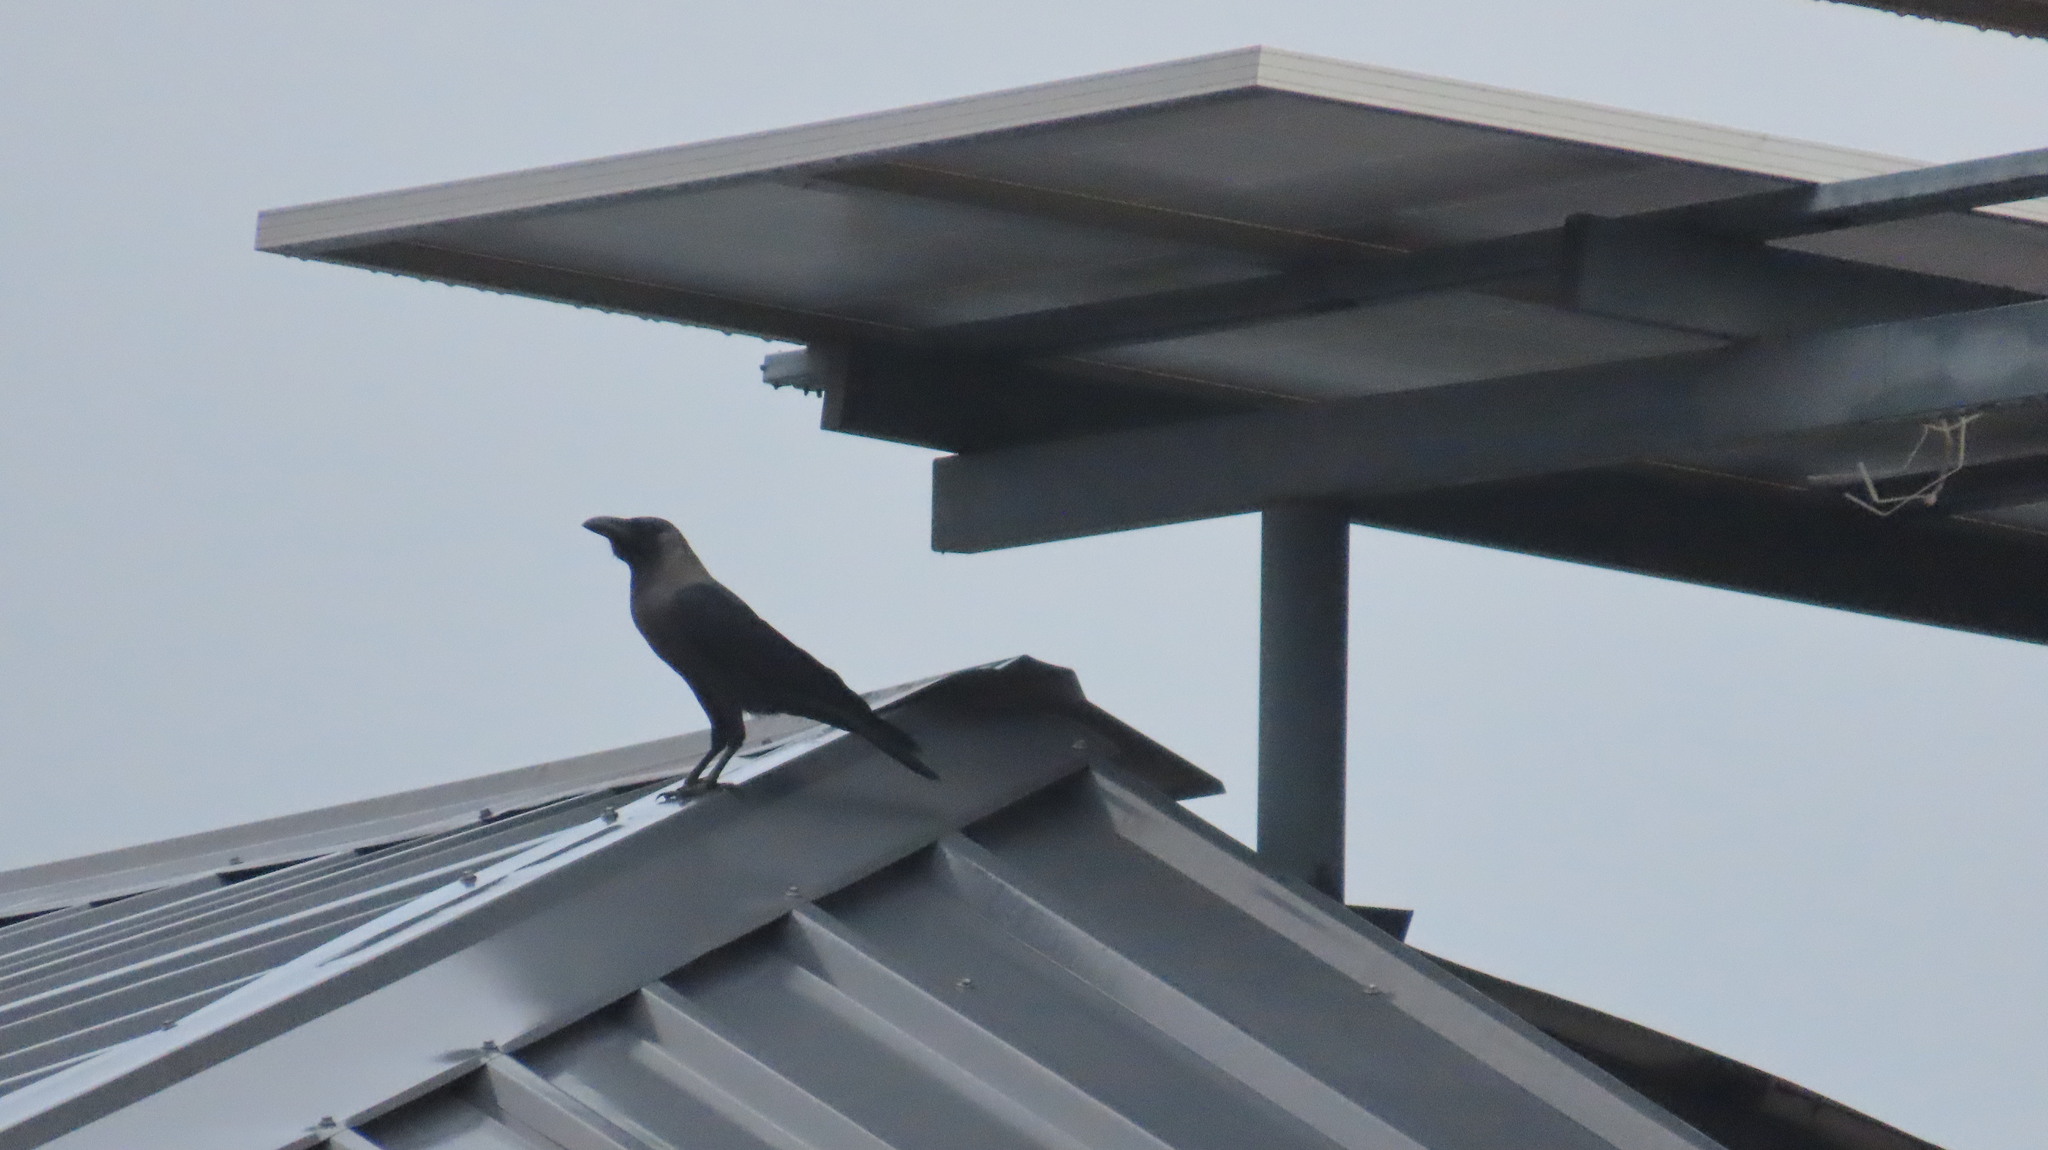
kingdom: Animalia
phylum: Chordata
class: Aves
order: Passeriformes
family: Corvidae
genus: Corvus
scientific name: Corvus splendens
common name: House crow
